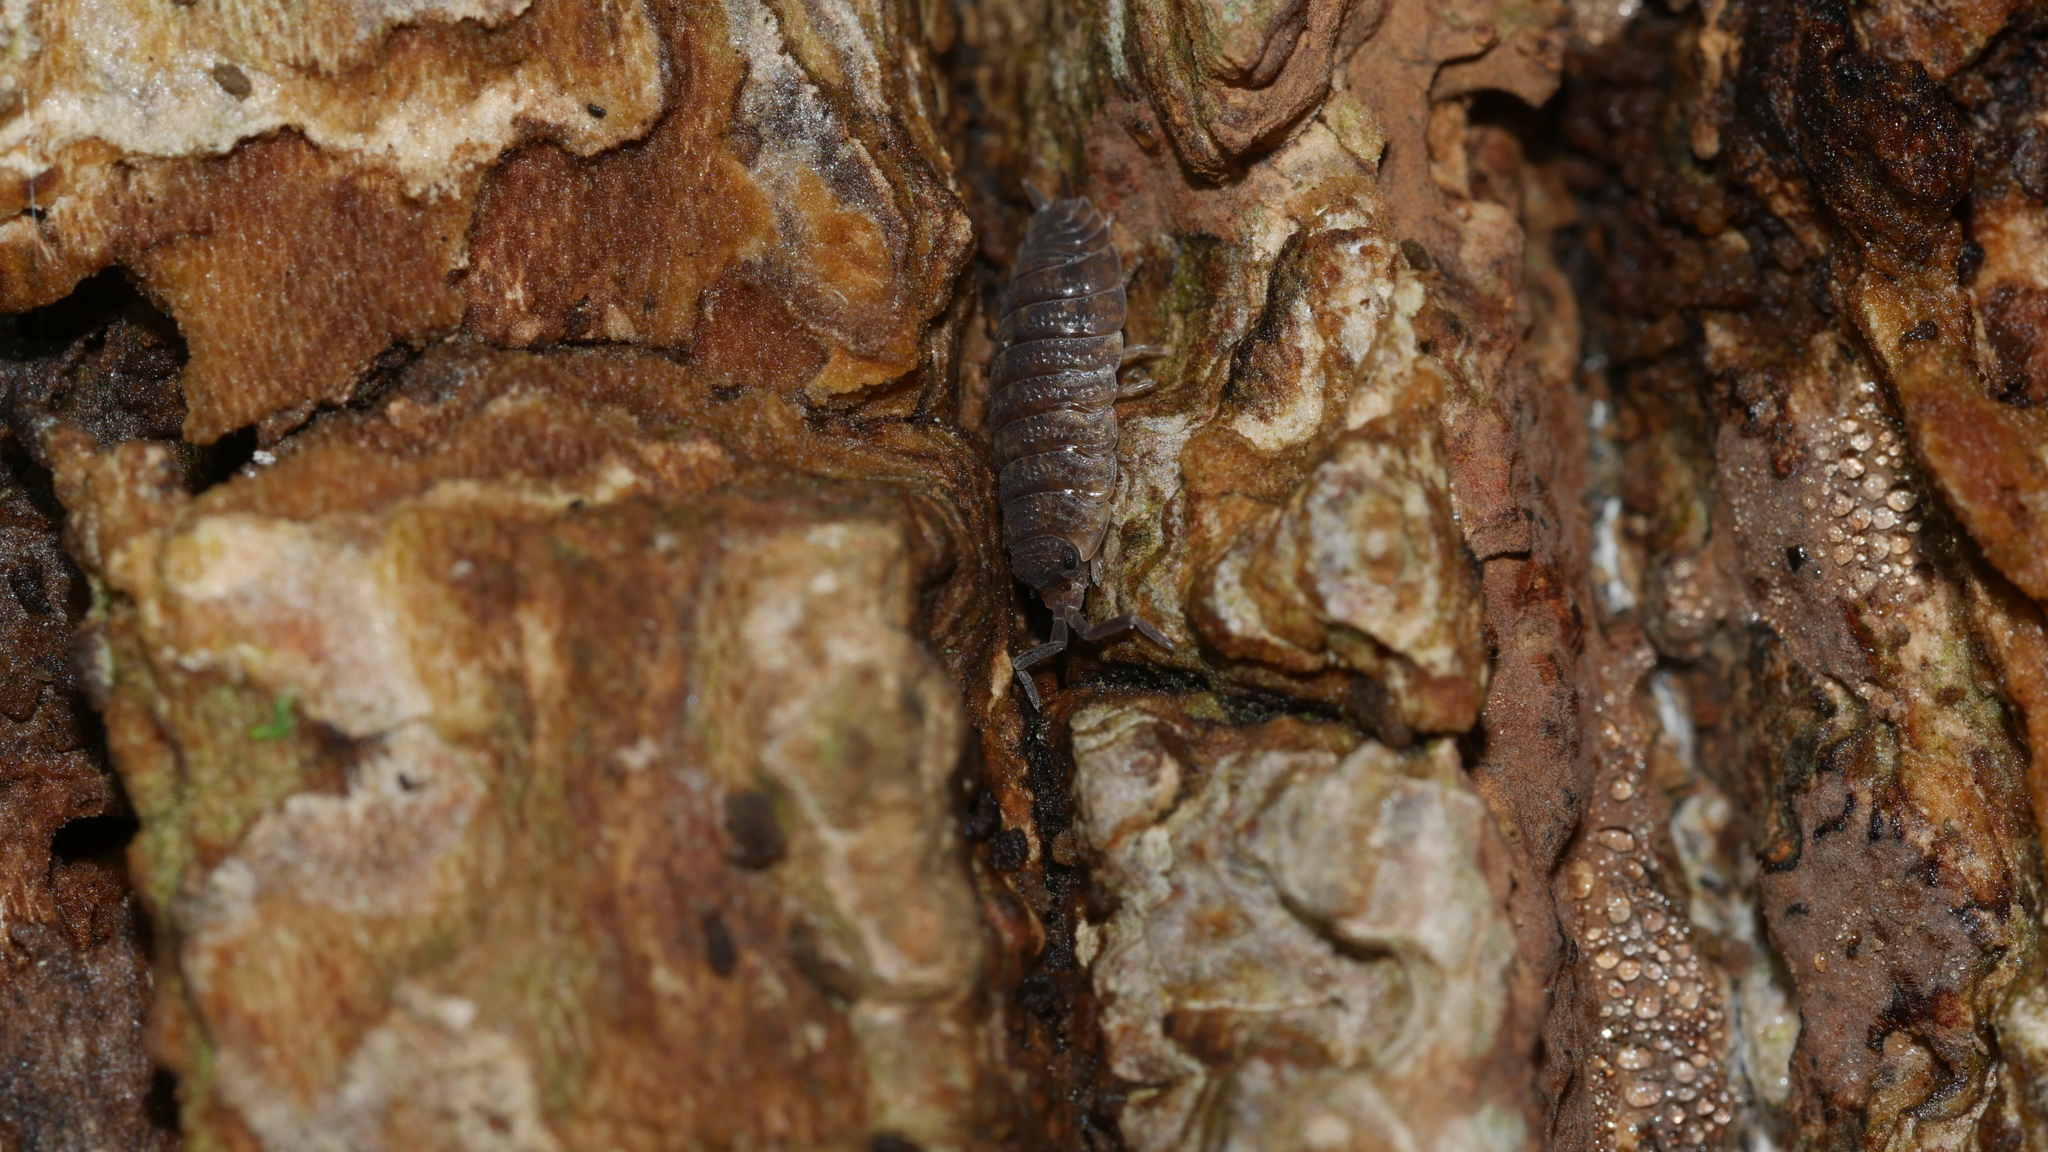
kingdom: Animalia
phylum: Arthropoda
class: Malacostraca
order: Isopoda
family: Porcellionidae
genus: Porcellio
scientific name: Porcellio scaber
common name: Common rough woodlouse
